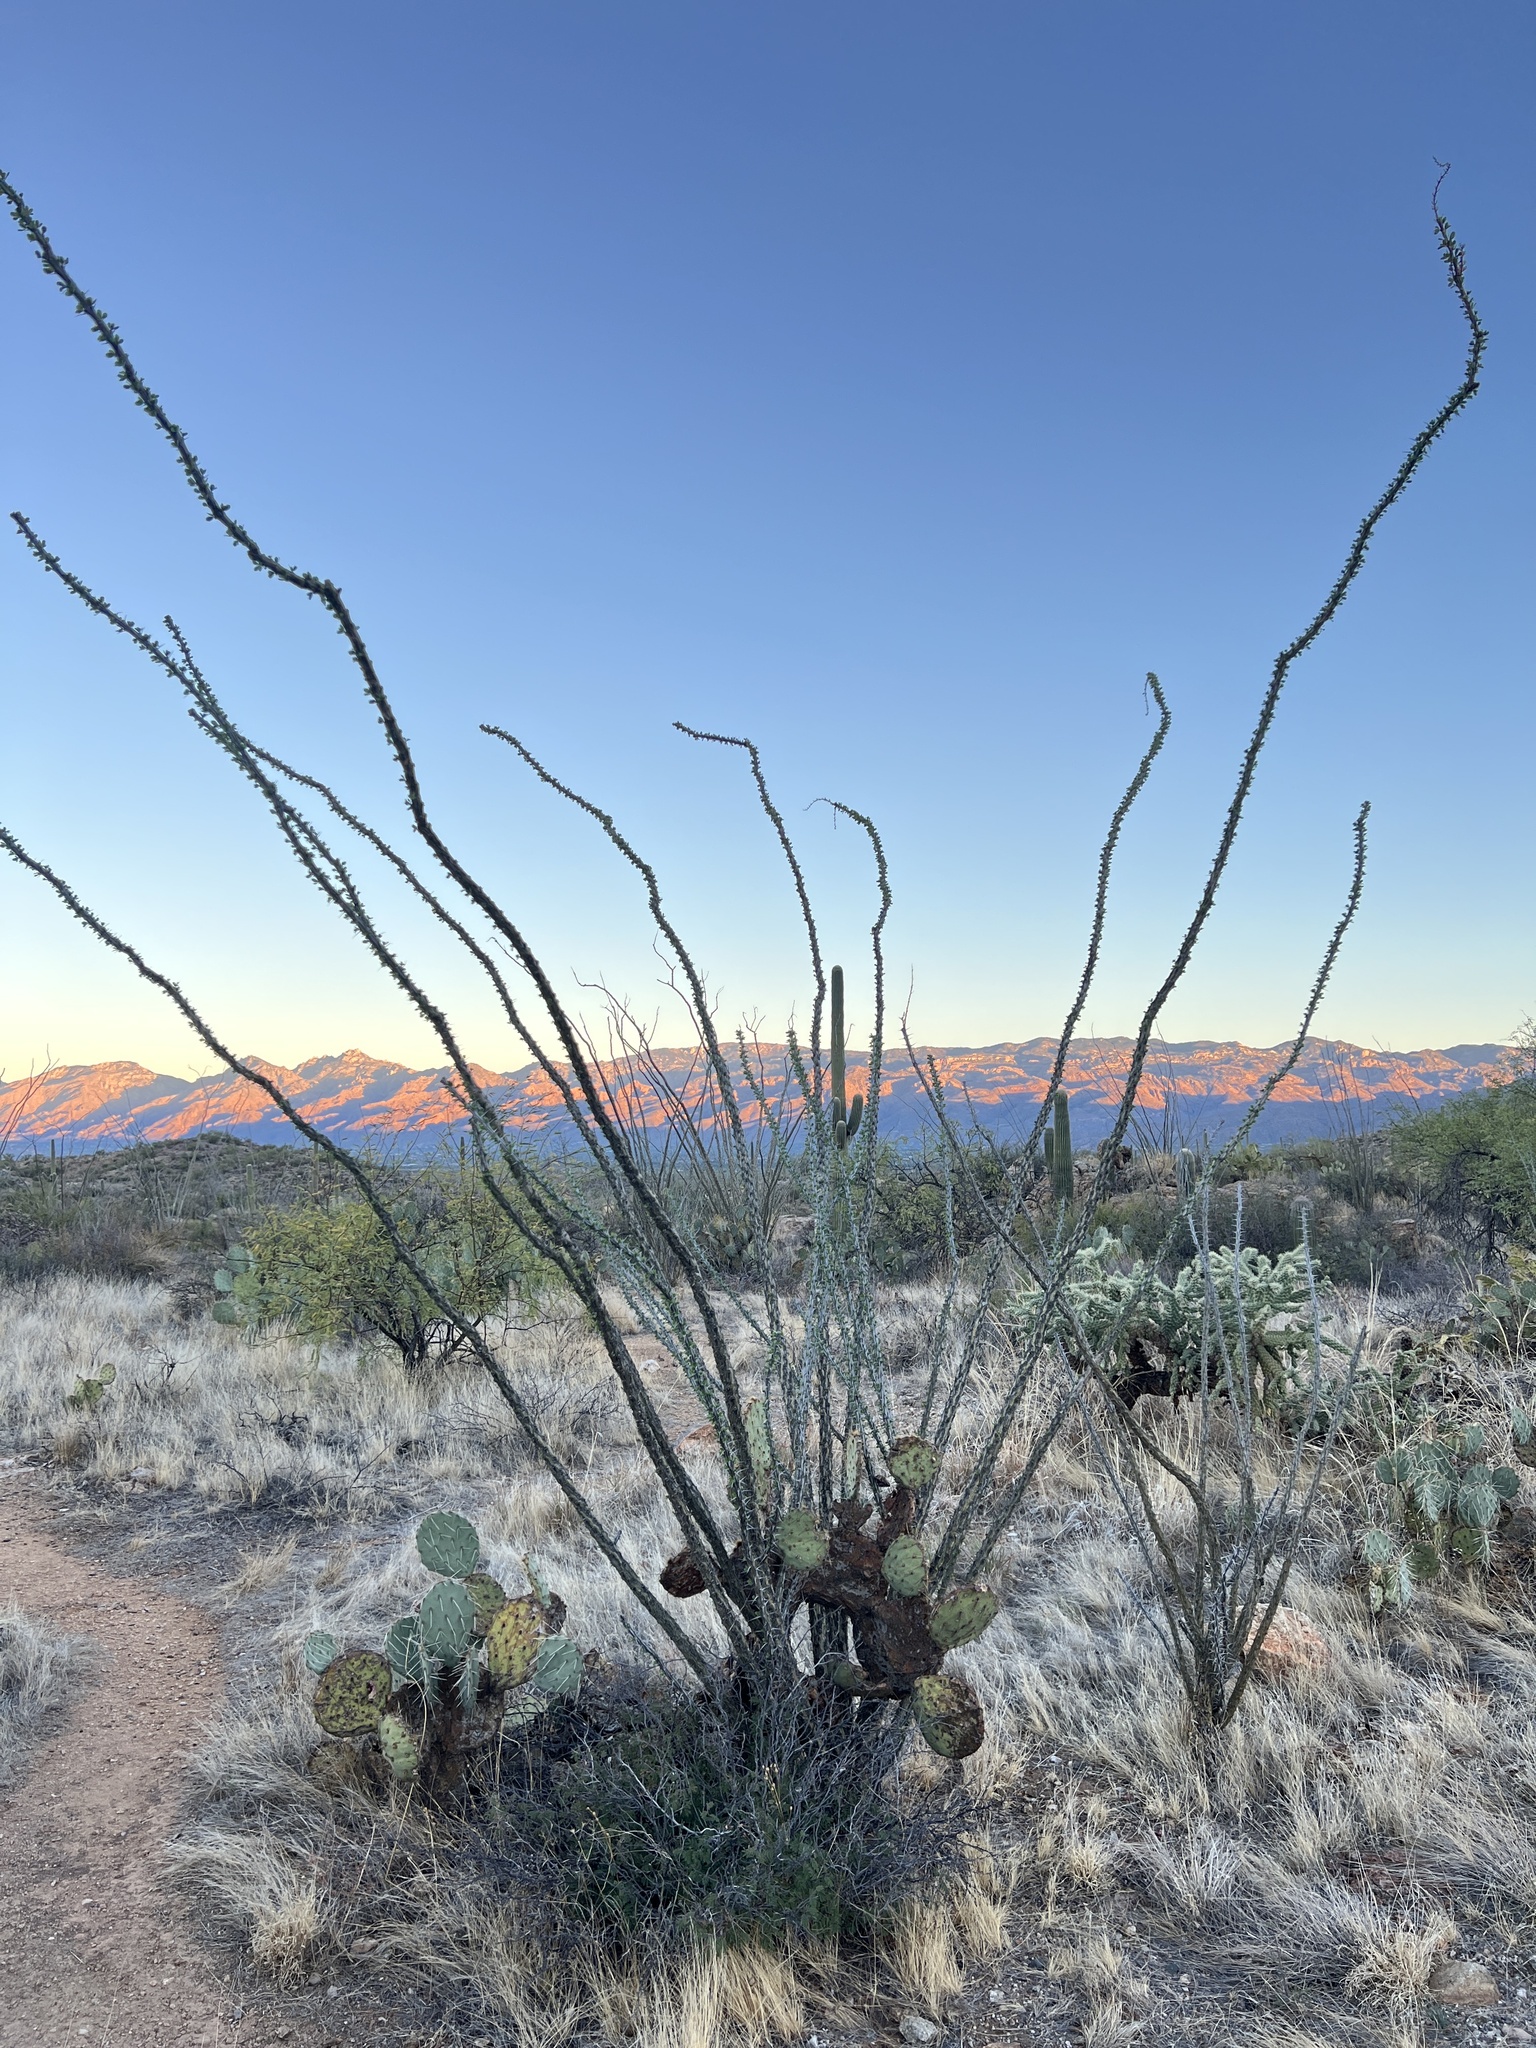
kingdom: Plantae
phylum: Tracheophyta
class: Magnoliopsida
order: Ericales
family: Fouquieriaceae
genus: Fouquieria
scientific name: Fouquieria splendens
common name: Vine-cactus
